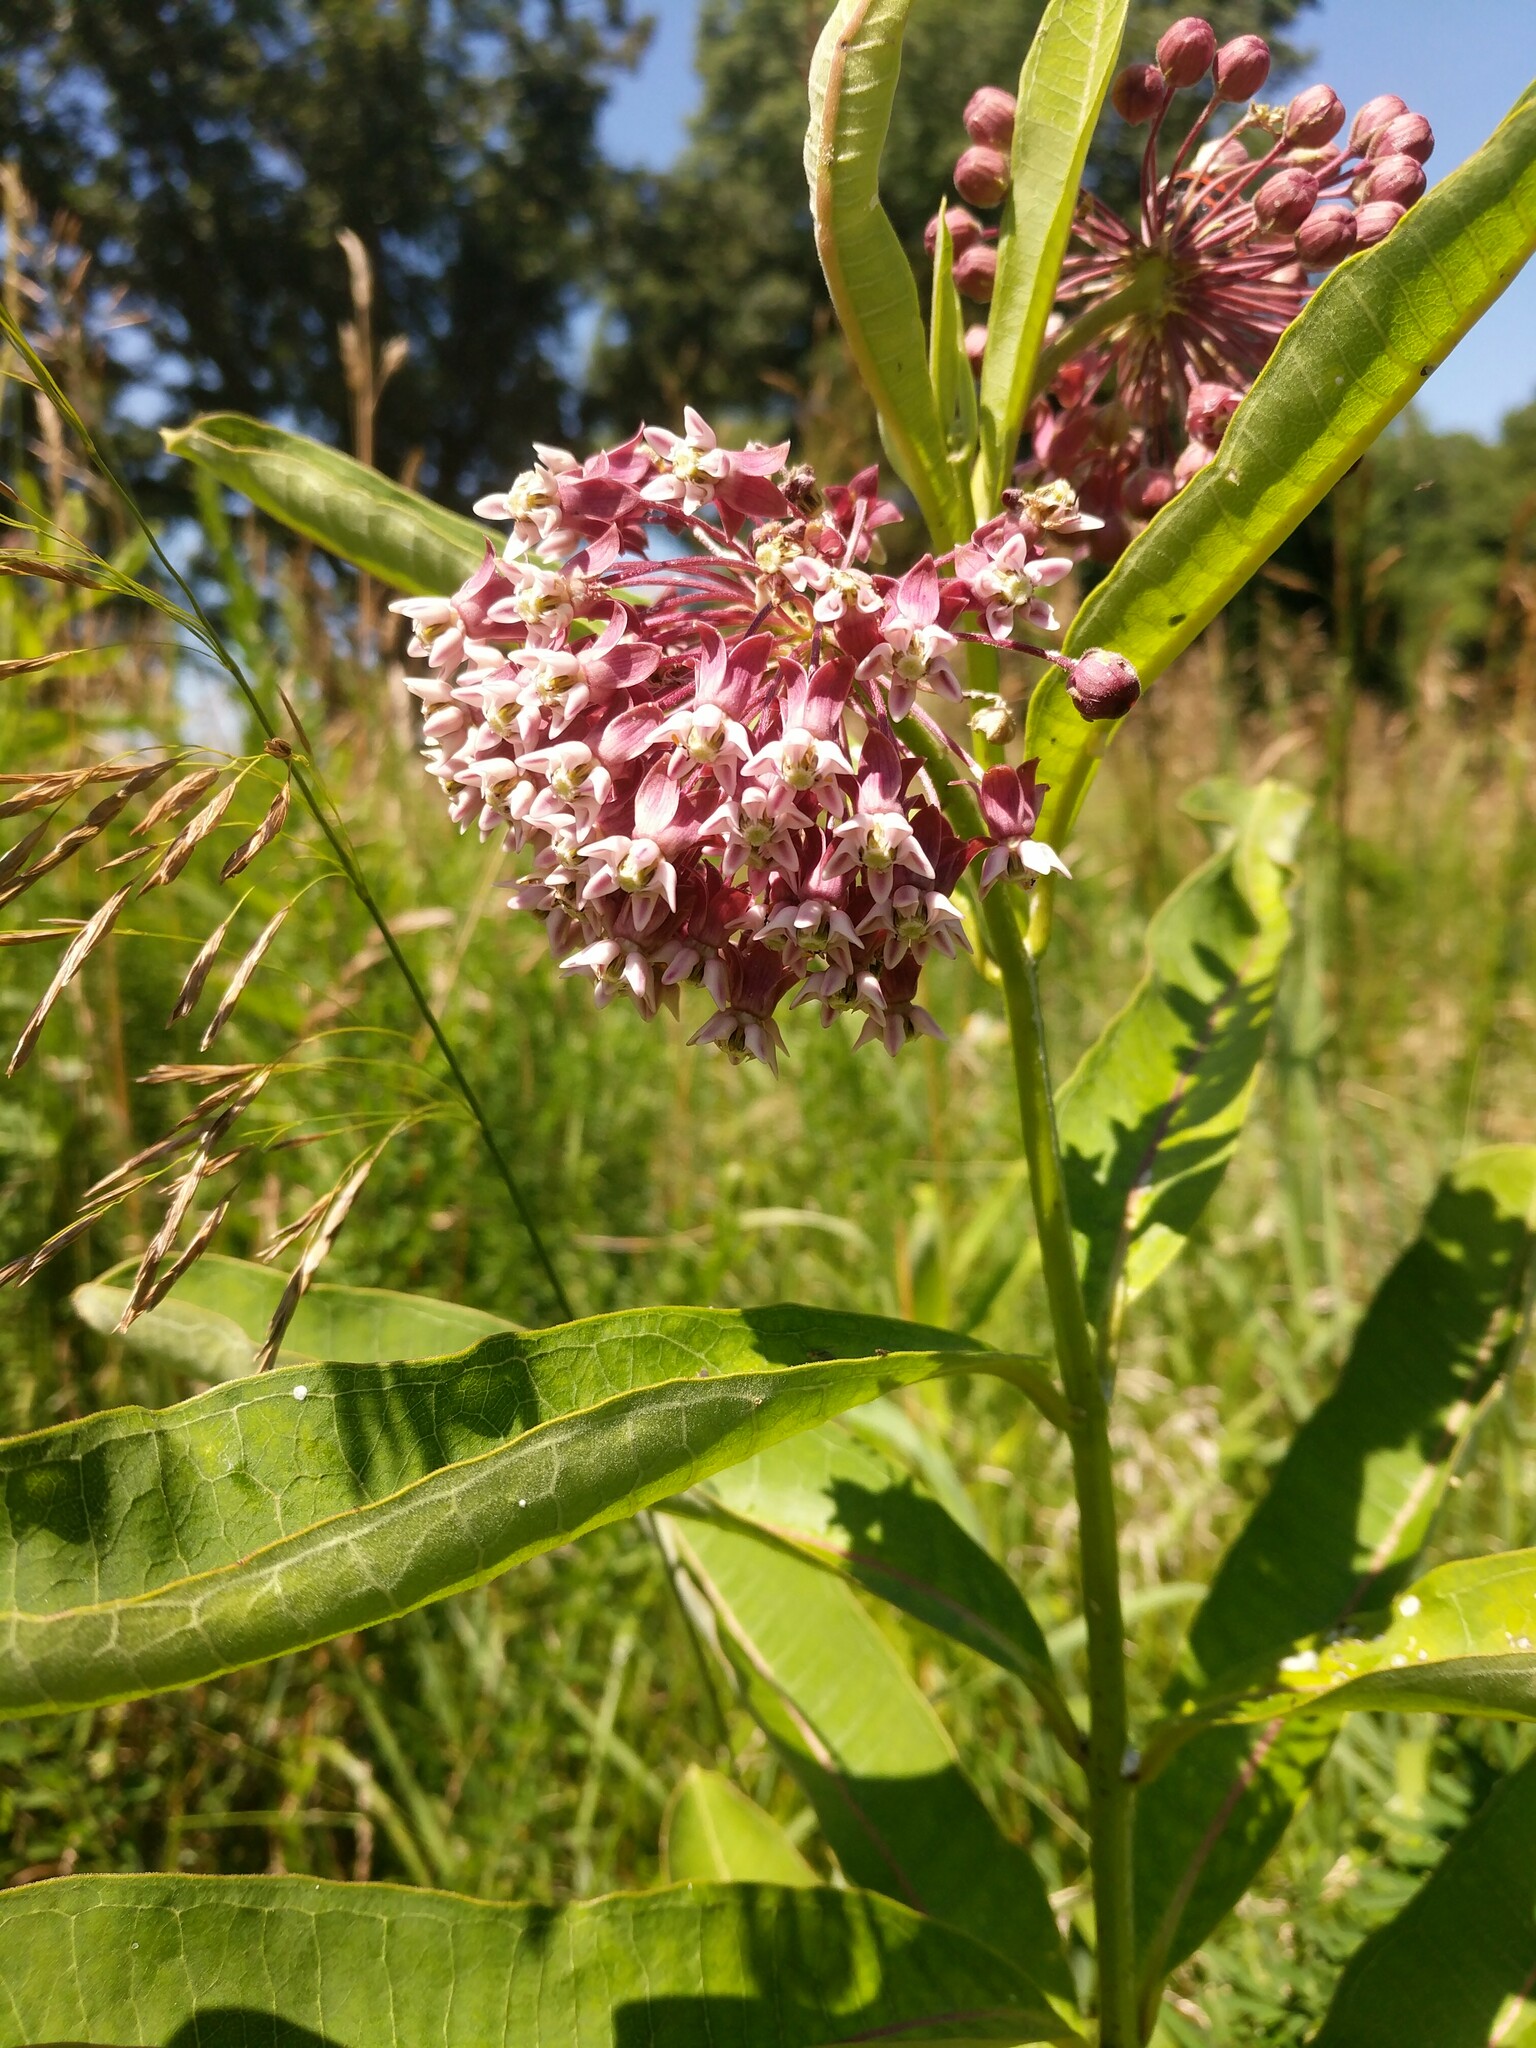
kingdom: Plantae
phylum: Tracheophyta
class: Magnoliopsida
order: Gentianales
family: Apocynaceae
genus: Asclepias
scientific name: Asclepias syriaca
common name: Common milkweed
